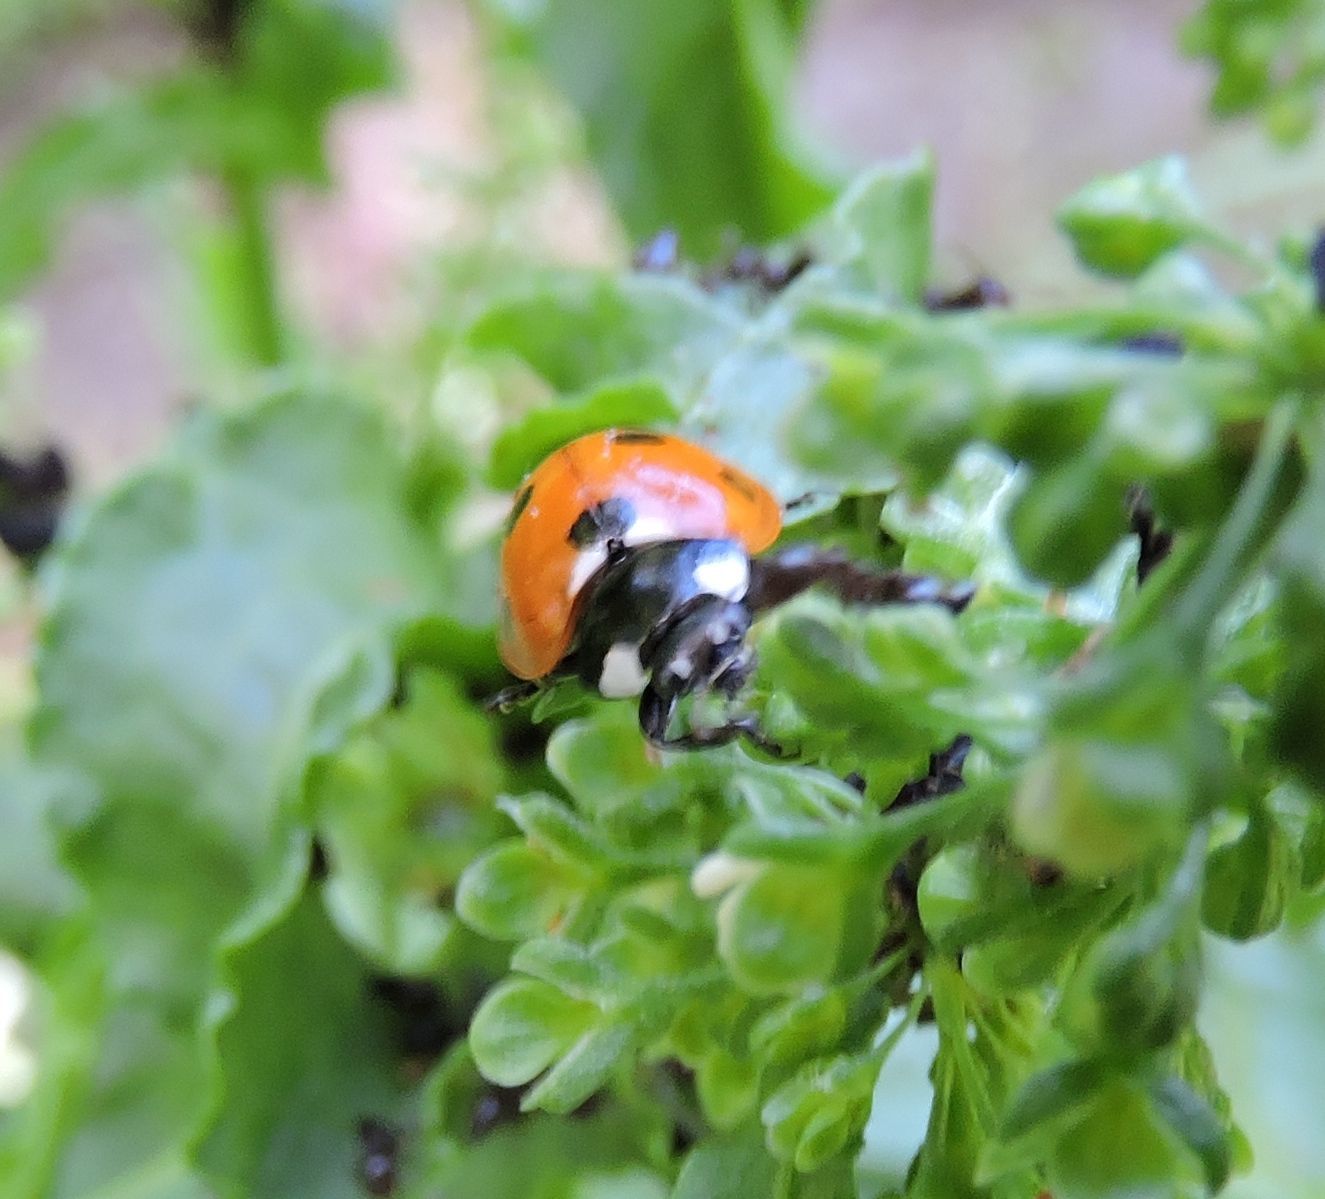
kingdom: Animalia
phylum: Arthropoda
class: Insecta
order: Coleoptera
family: Coccinellidae
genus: Coccinella
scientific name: Coccinella septempunctata
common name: Sevenspotted lady beetle
